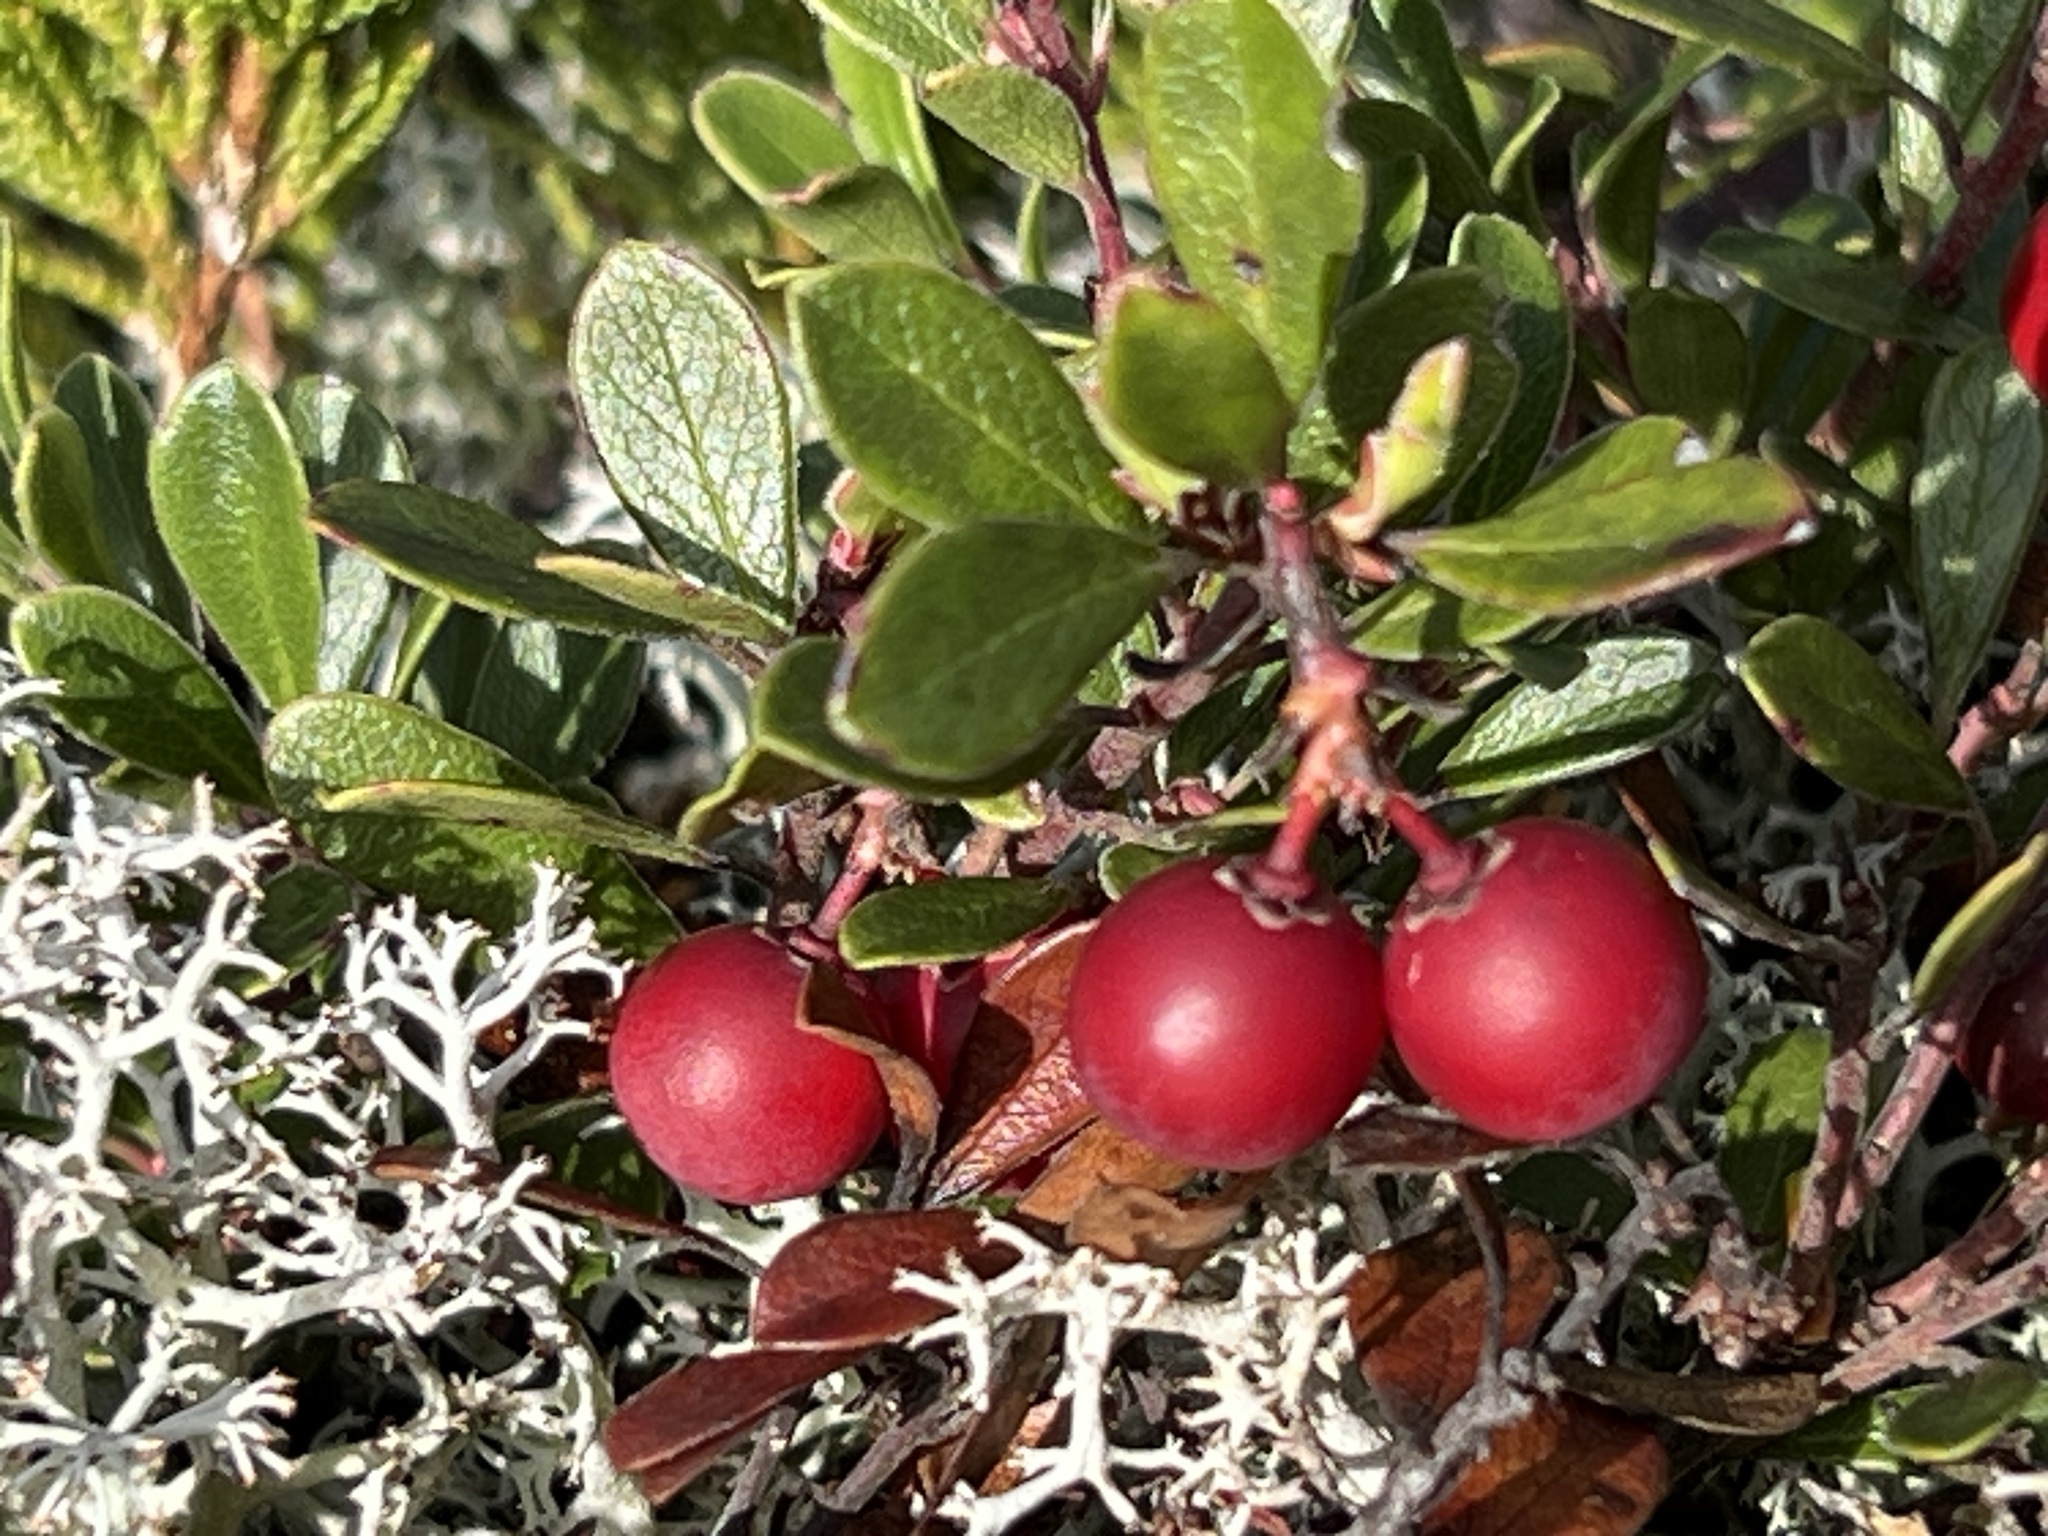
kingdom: Plantae
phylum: Tracheophyta
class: Magnoliopsida
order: Ericales
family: Ericaceae
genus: Arctostaphylos
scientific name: Arctostaphylos uva-ursi
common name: Bearberry
